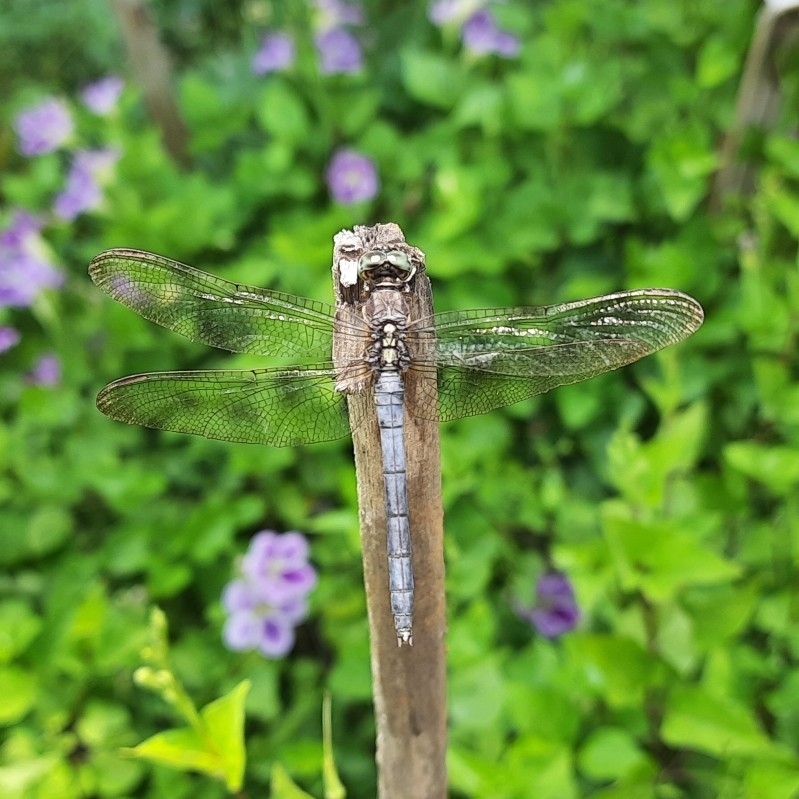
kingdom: Animalia
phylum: Arthropoda
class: Insecta
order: Odonata
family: Libellulidae
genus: Orthetrum
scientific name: Orthetrum luzonicum
